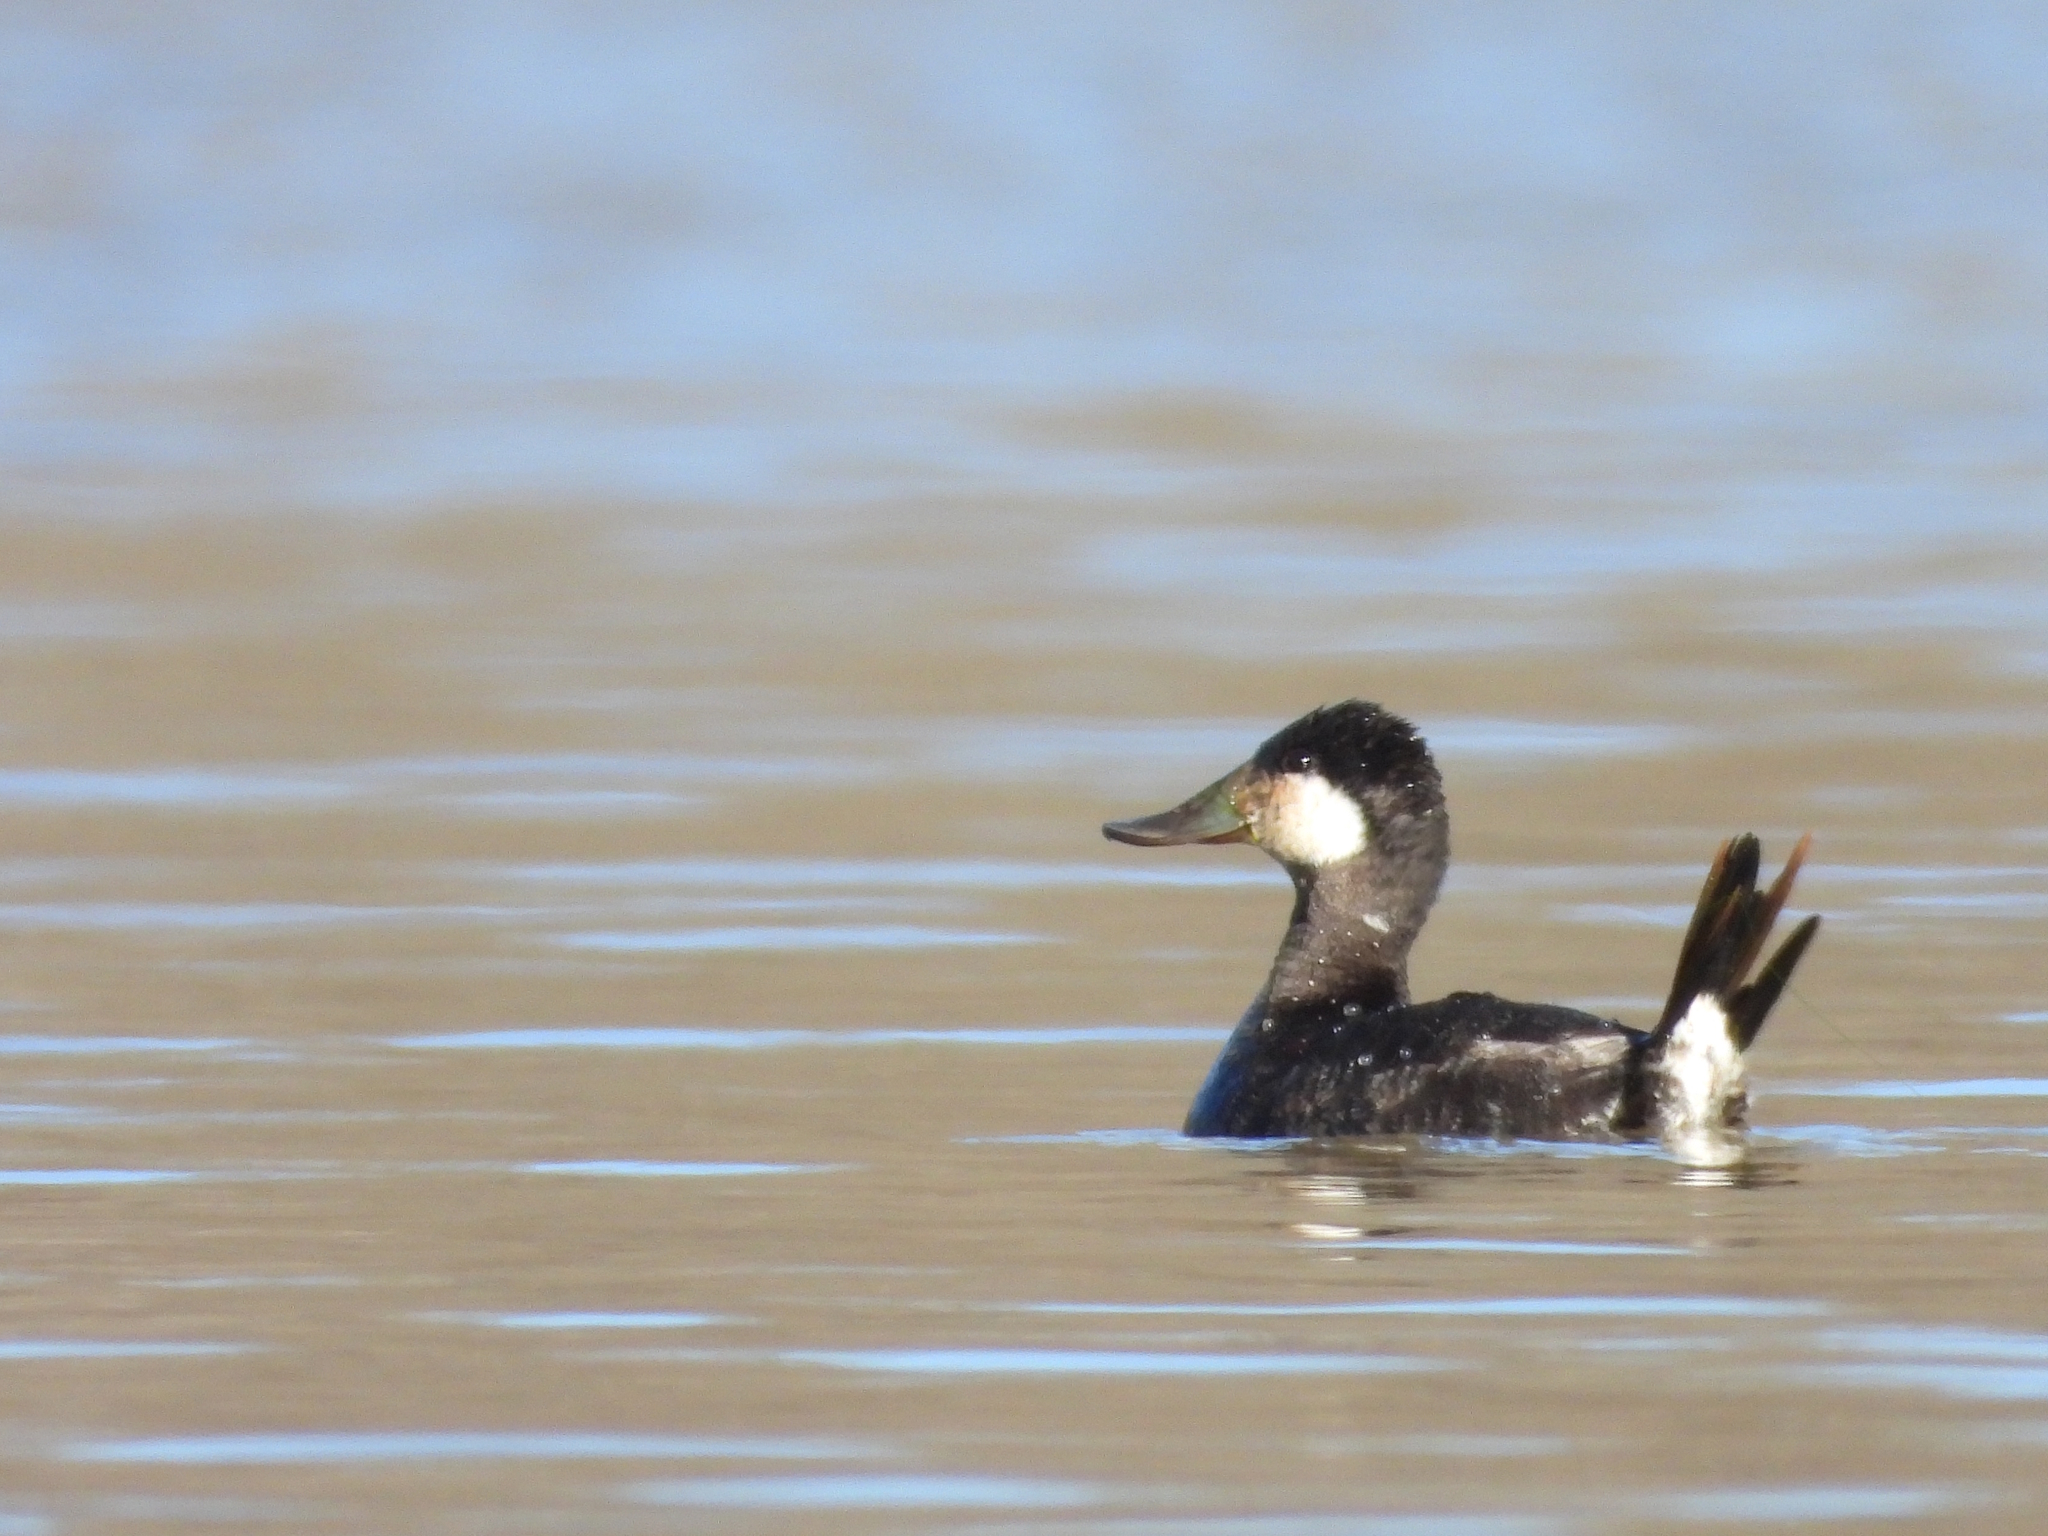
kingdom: Animalia
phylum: Chordata
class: Aves
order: Anseriformes
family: Anatidae
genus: Oxyura
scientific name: Oxyura jamaicensis
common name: Ruddy duck
